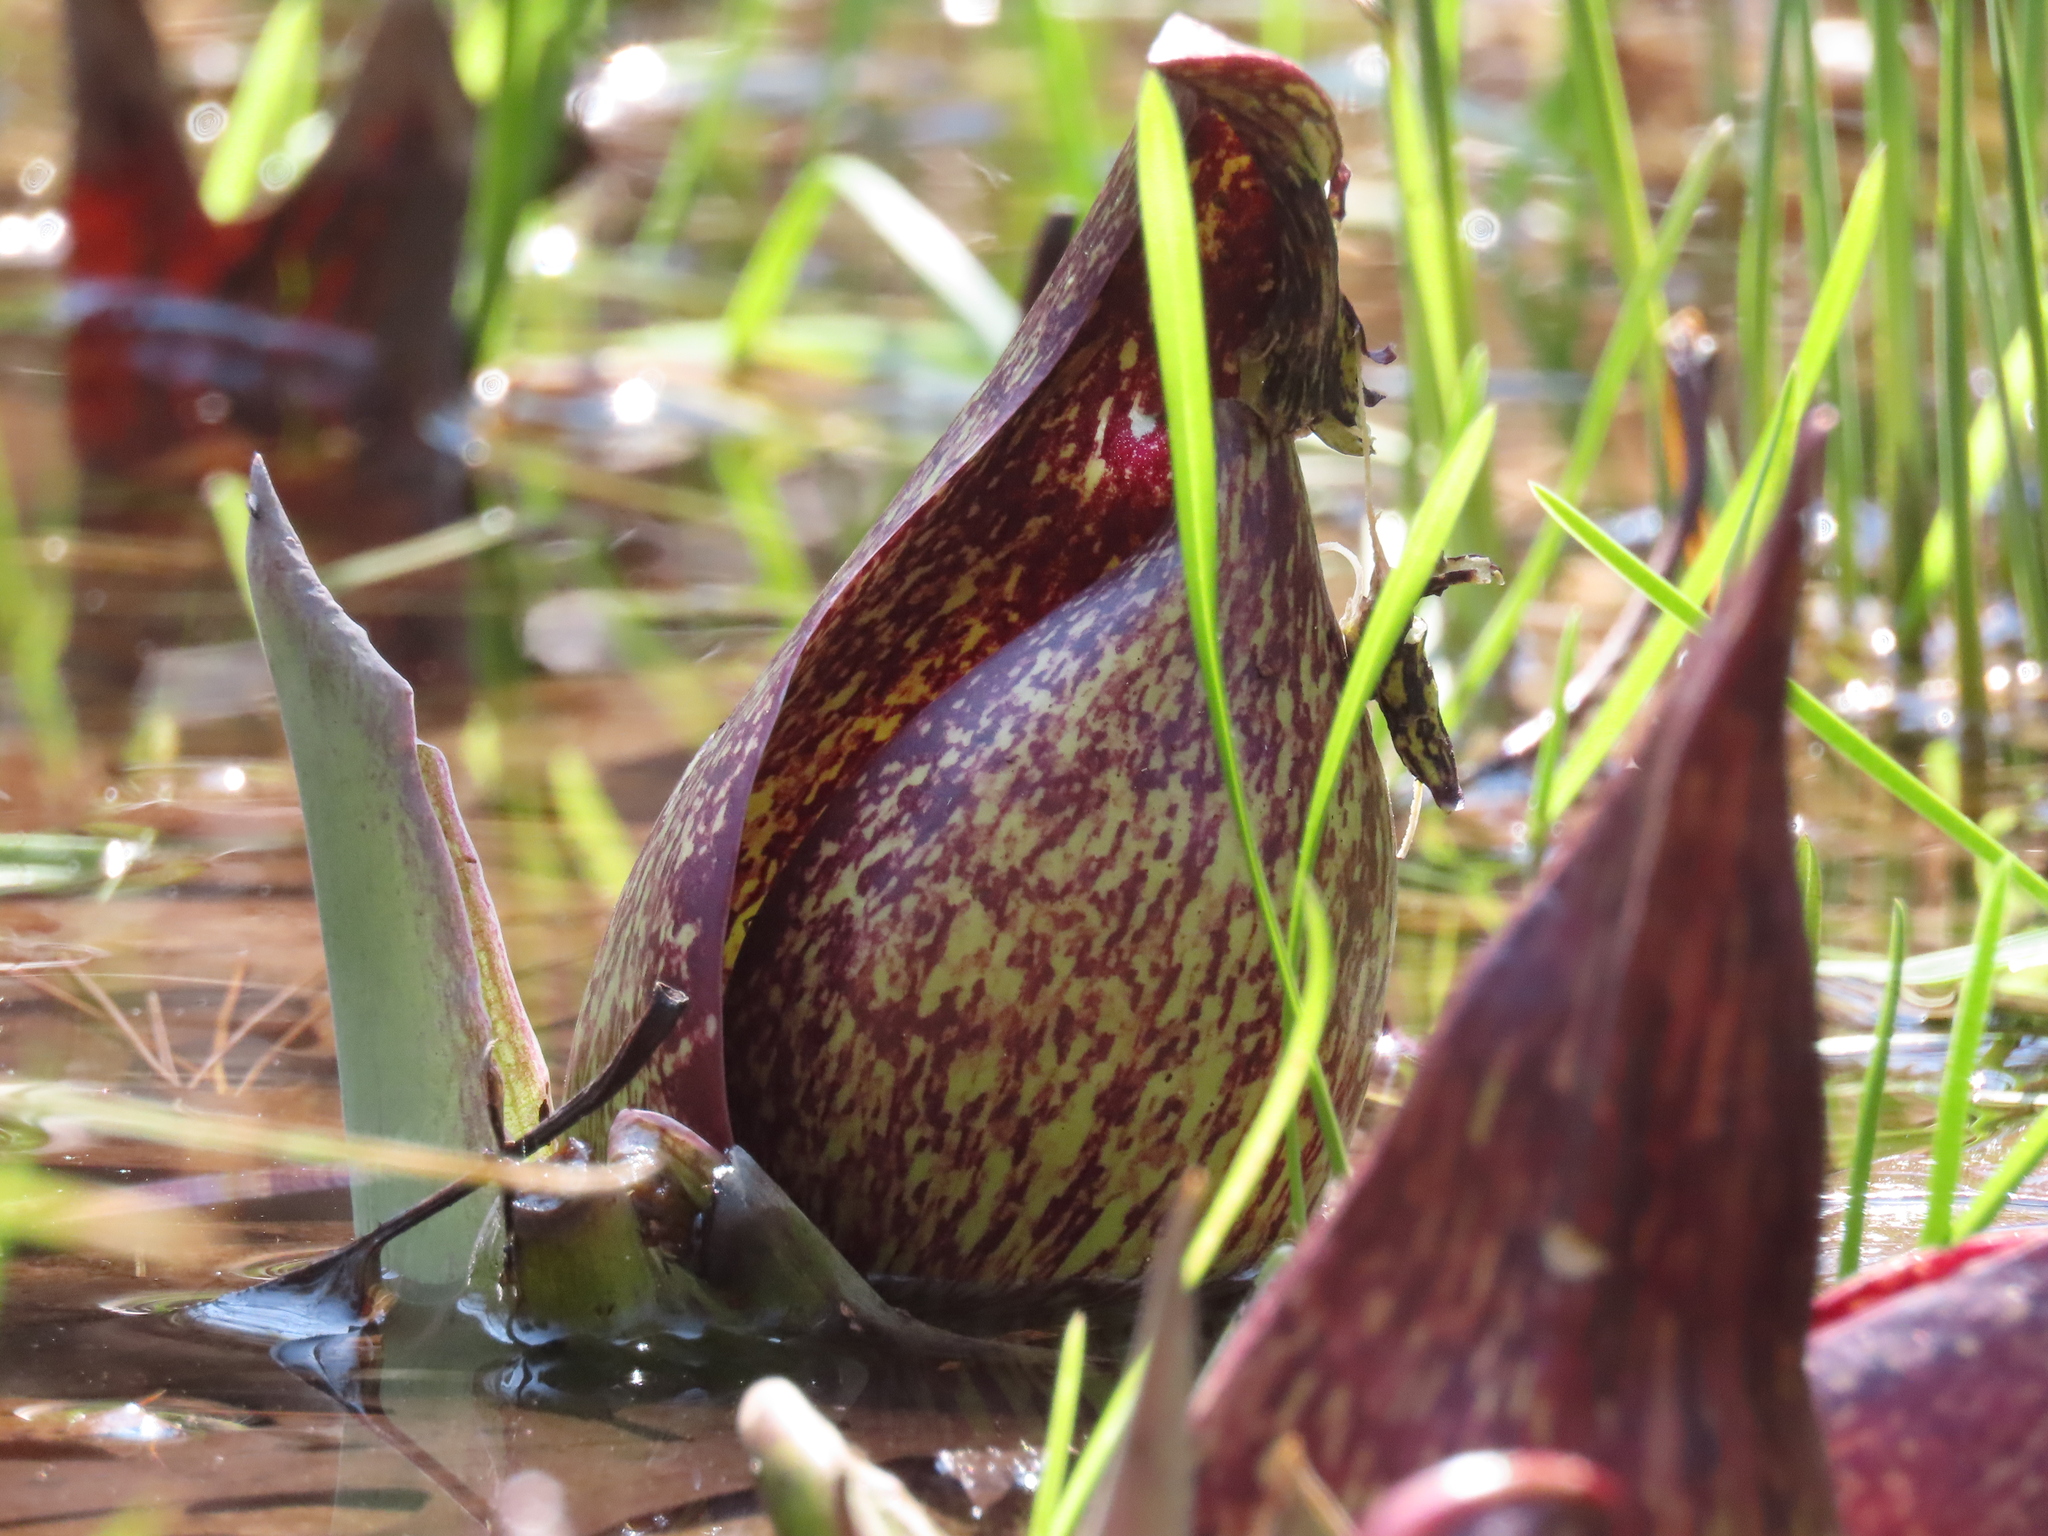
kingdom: Plantae
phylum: Tracheophyta
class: Liliopsida
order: Alismatales
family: Araceae
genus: Symplocarpus
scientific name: Symplocarpus foetidus
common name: Eastern skunk cabbage
